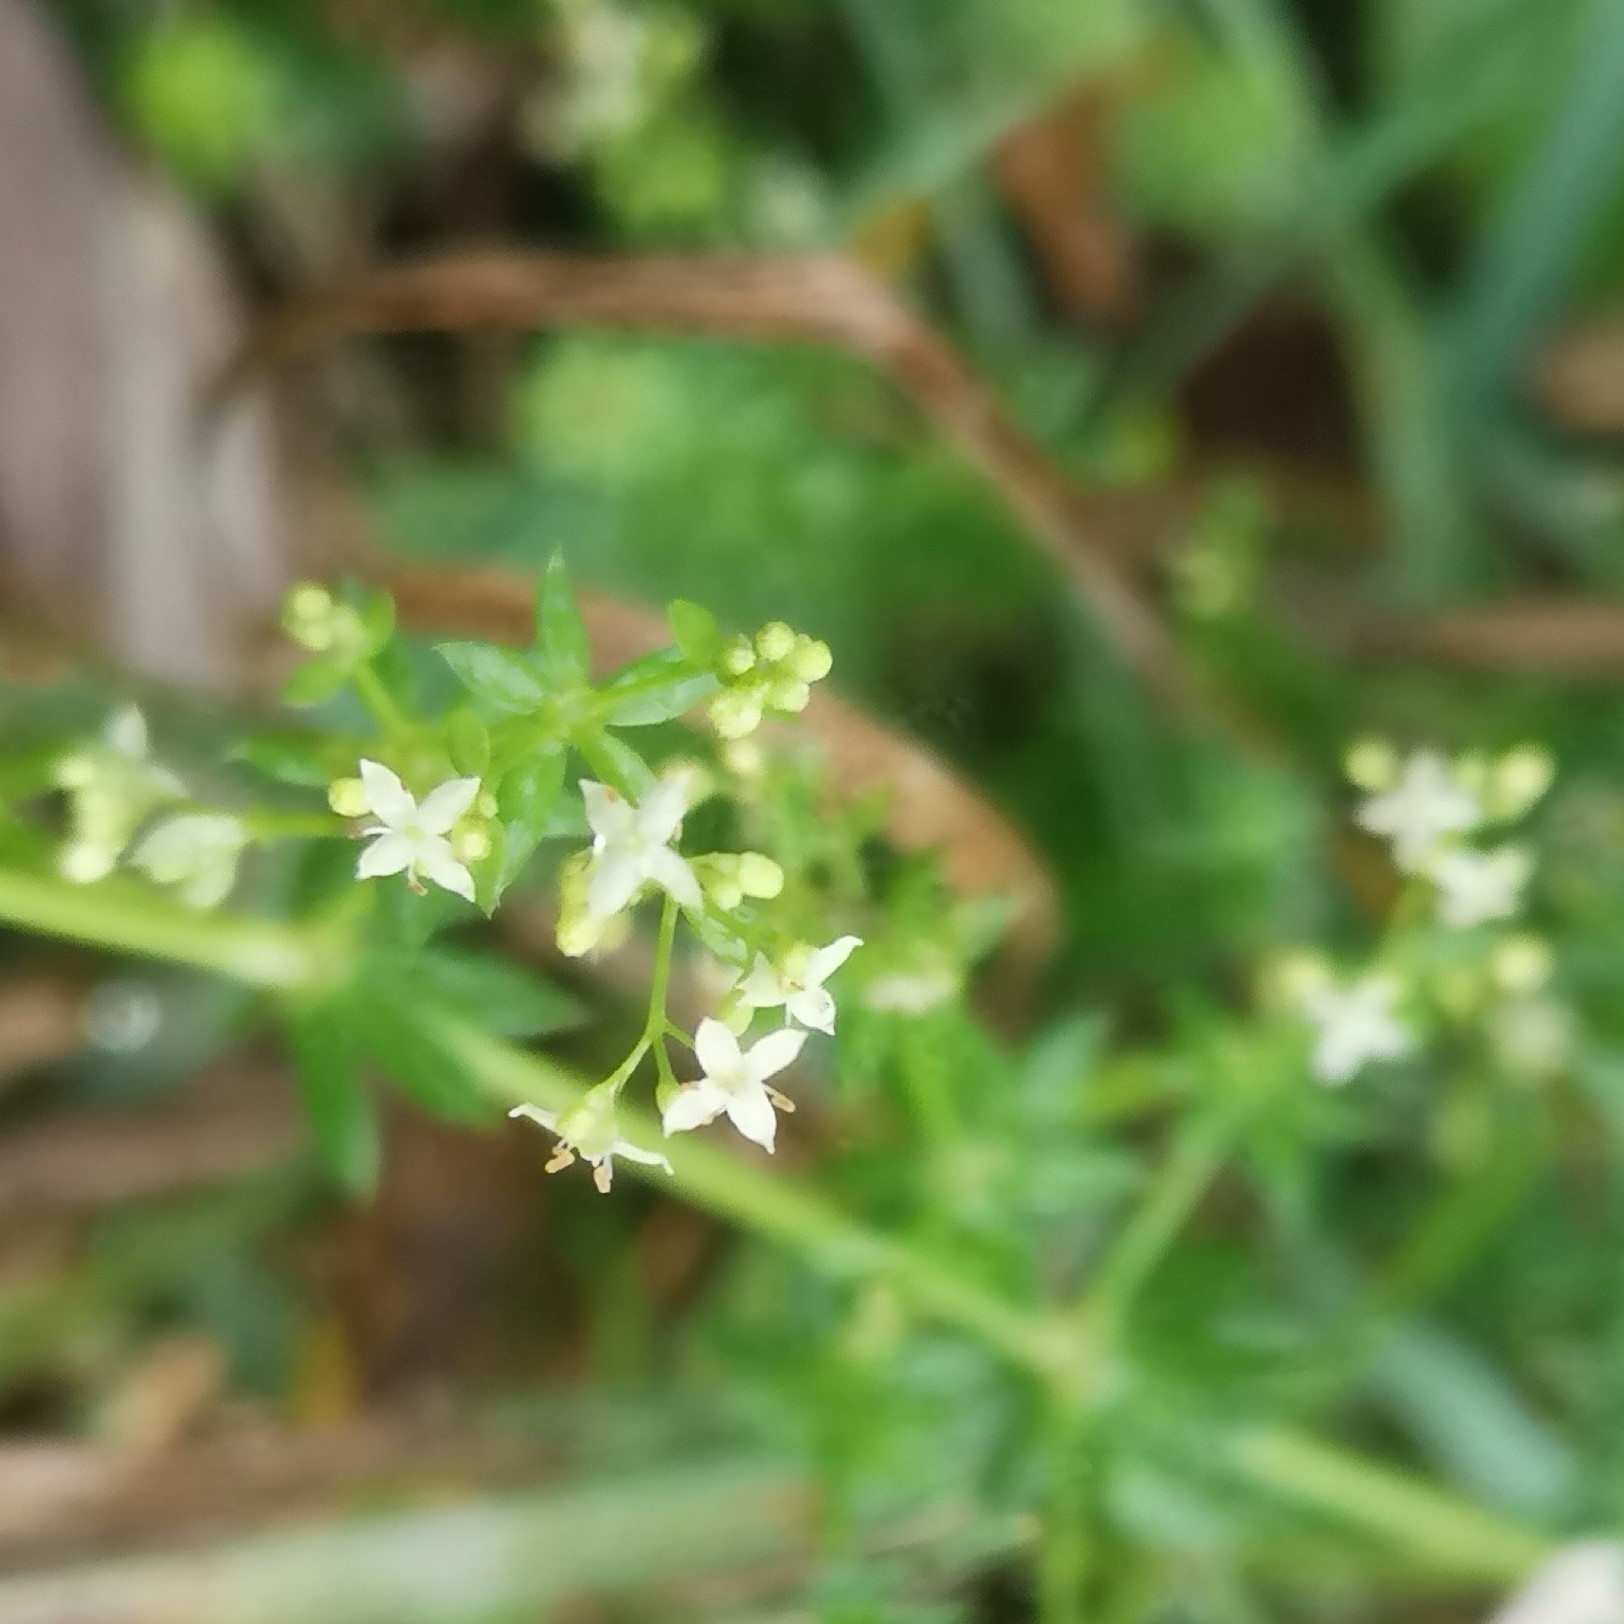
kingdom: Plantae
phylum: Tracheophyta
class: Magnoliopsida
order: Gentianales
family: Rubiaceae
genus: Galium
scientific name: Galium album
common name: White bedstraw
